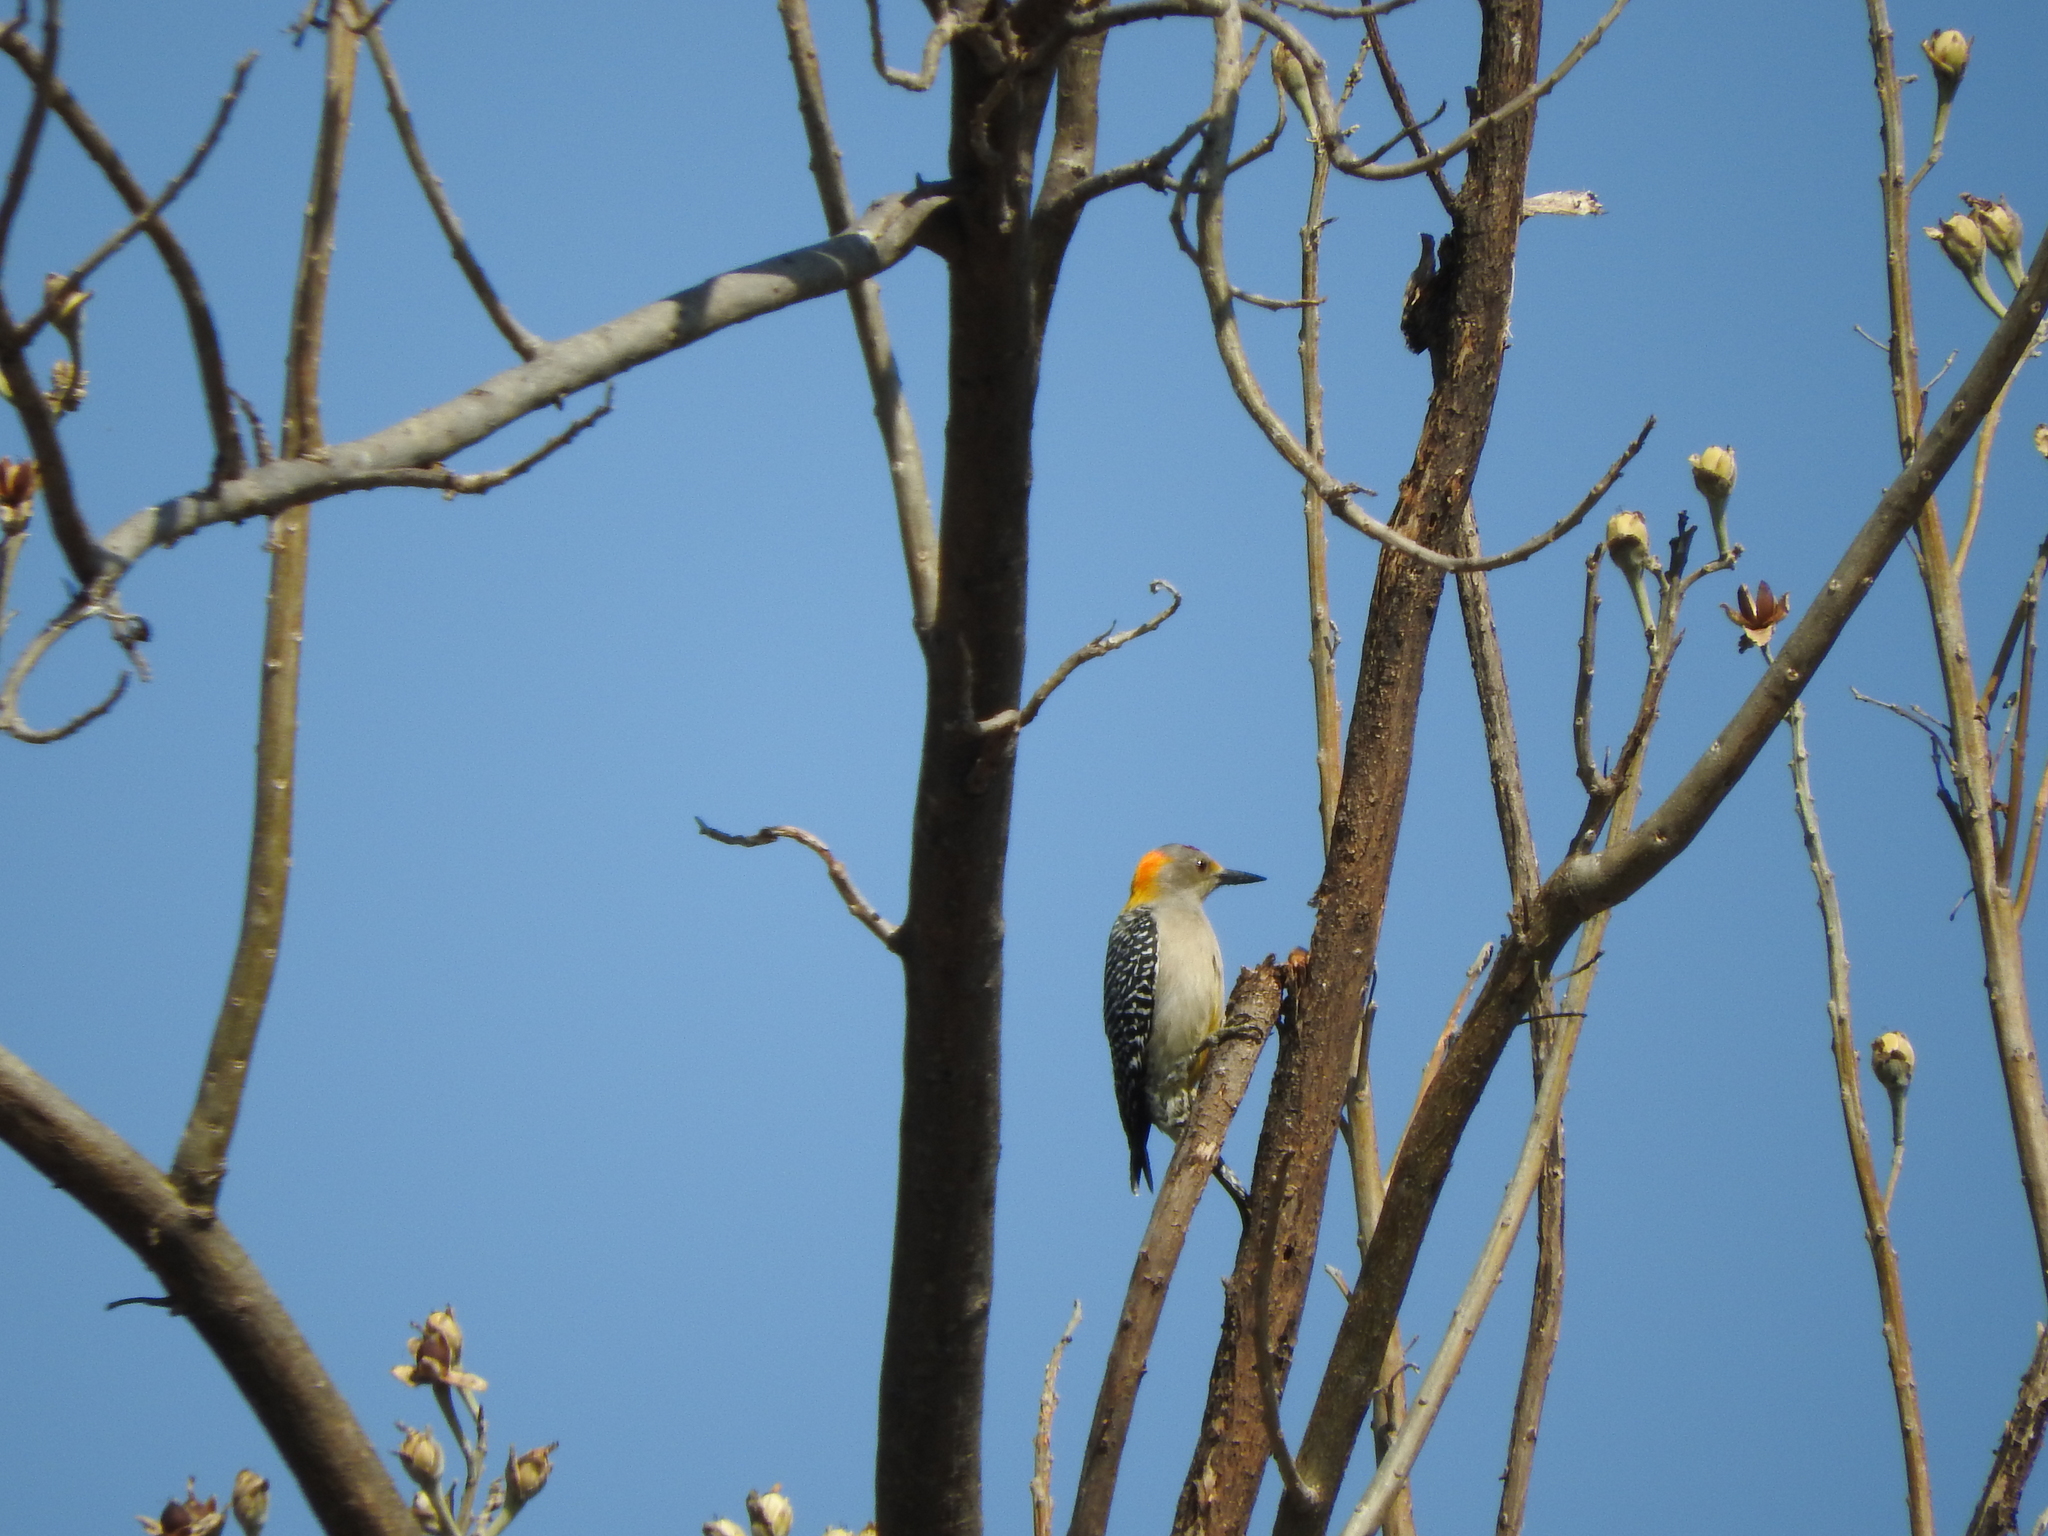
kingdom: Animalia
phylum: Chordata
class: Aves
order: Piciformes
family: Picidae
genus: Melanerpes
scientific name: Melanerpes aurifrons
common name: Golden-fronted woodpecker
